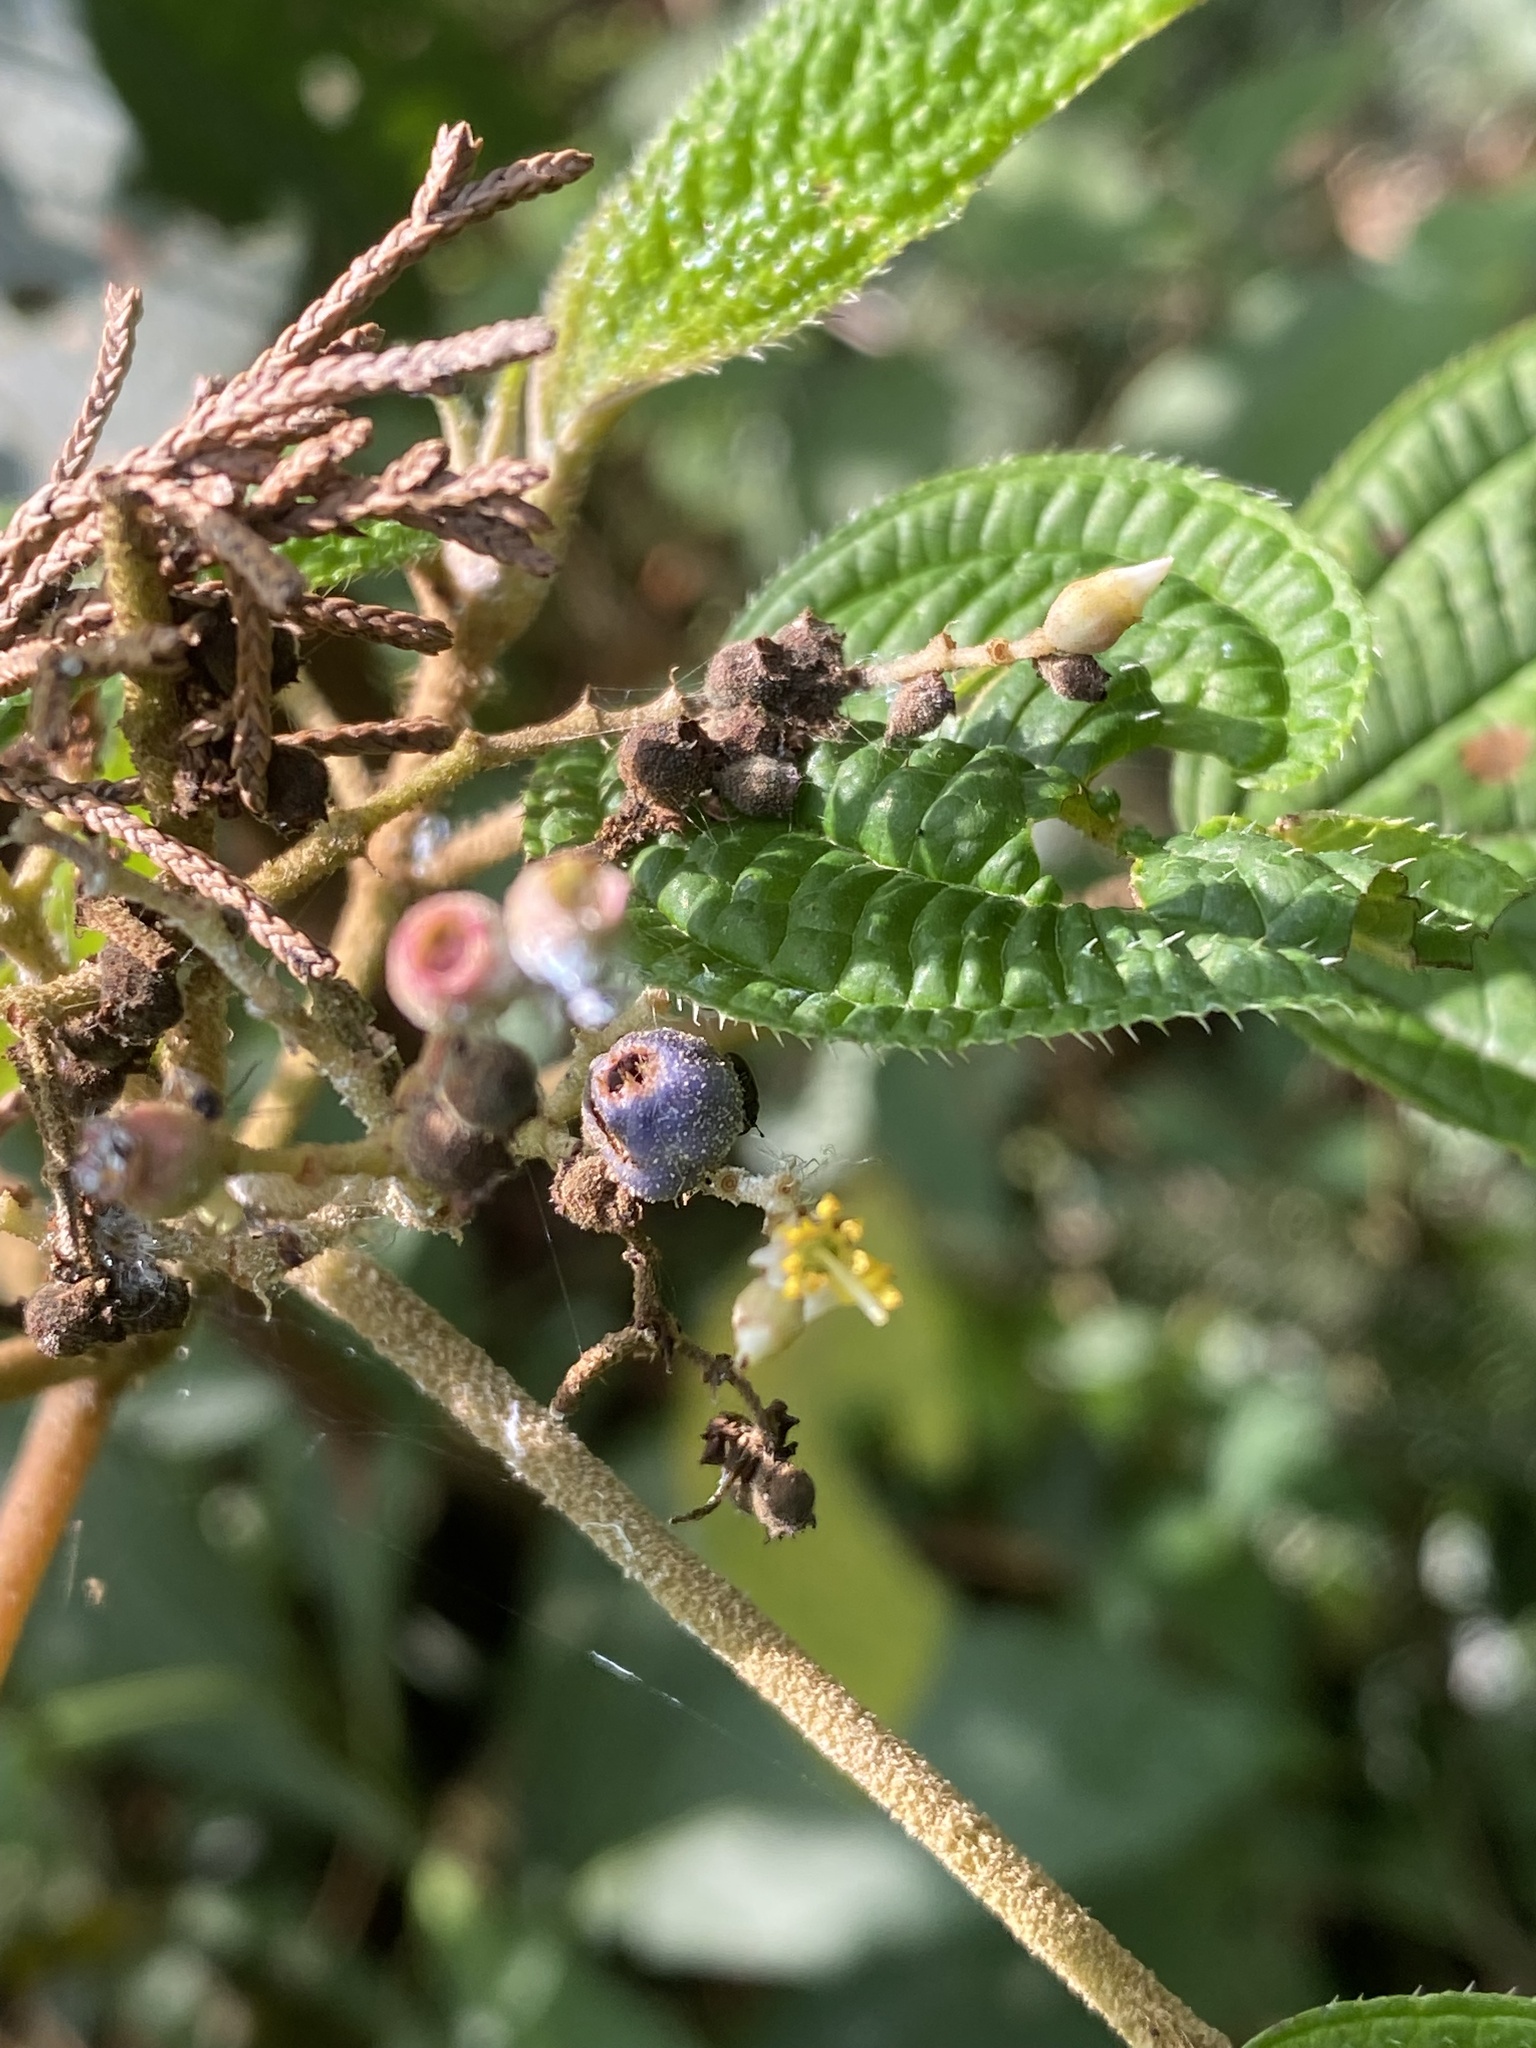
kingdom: Plantae
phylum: Tracheophyta
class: Magnoliopsida
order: Myrtales
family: Melastomataceae
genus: Miconia
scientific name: Miconia subseriata
